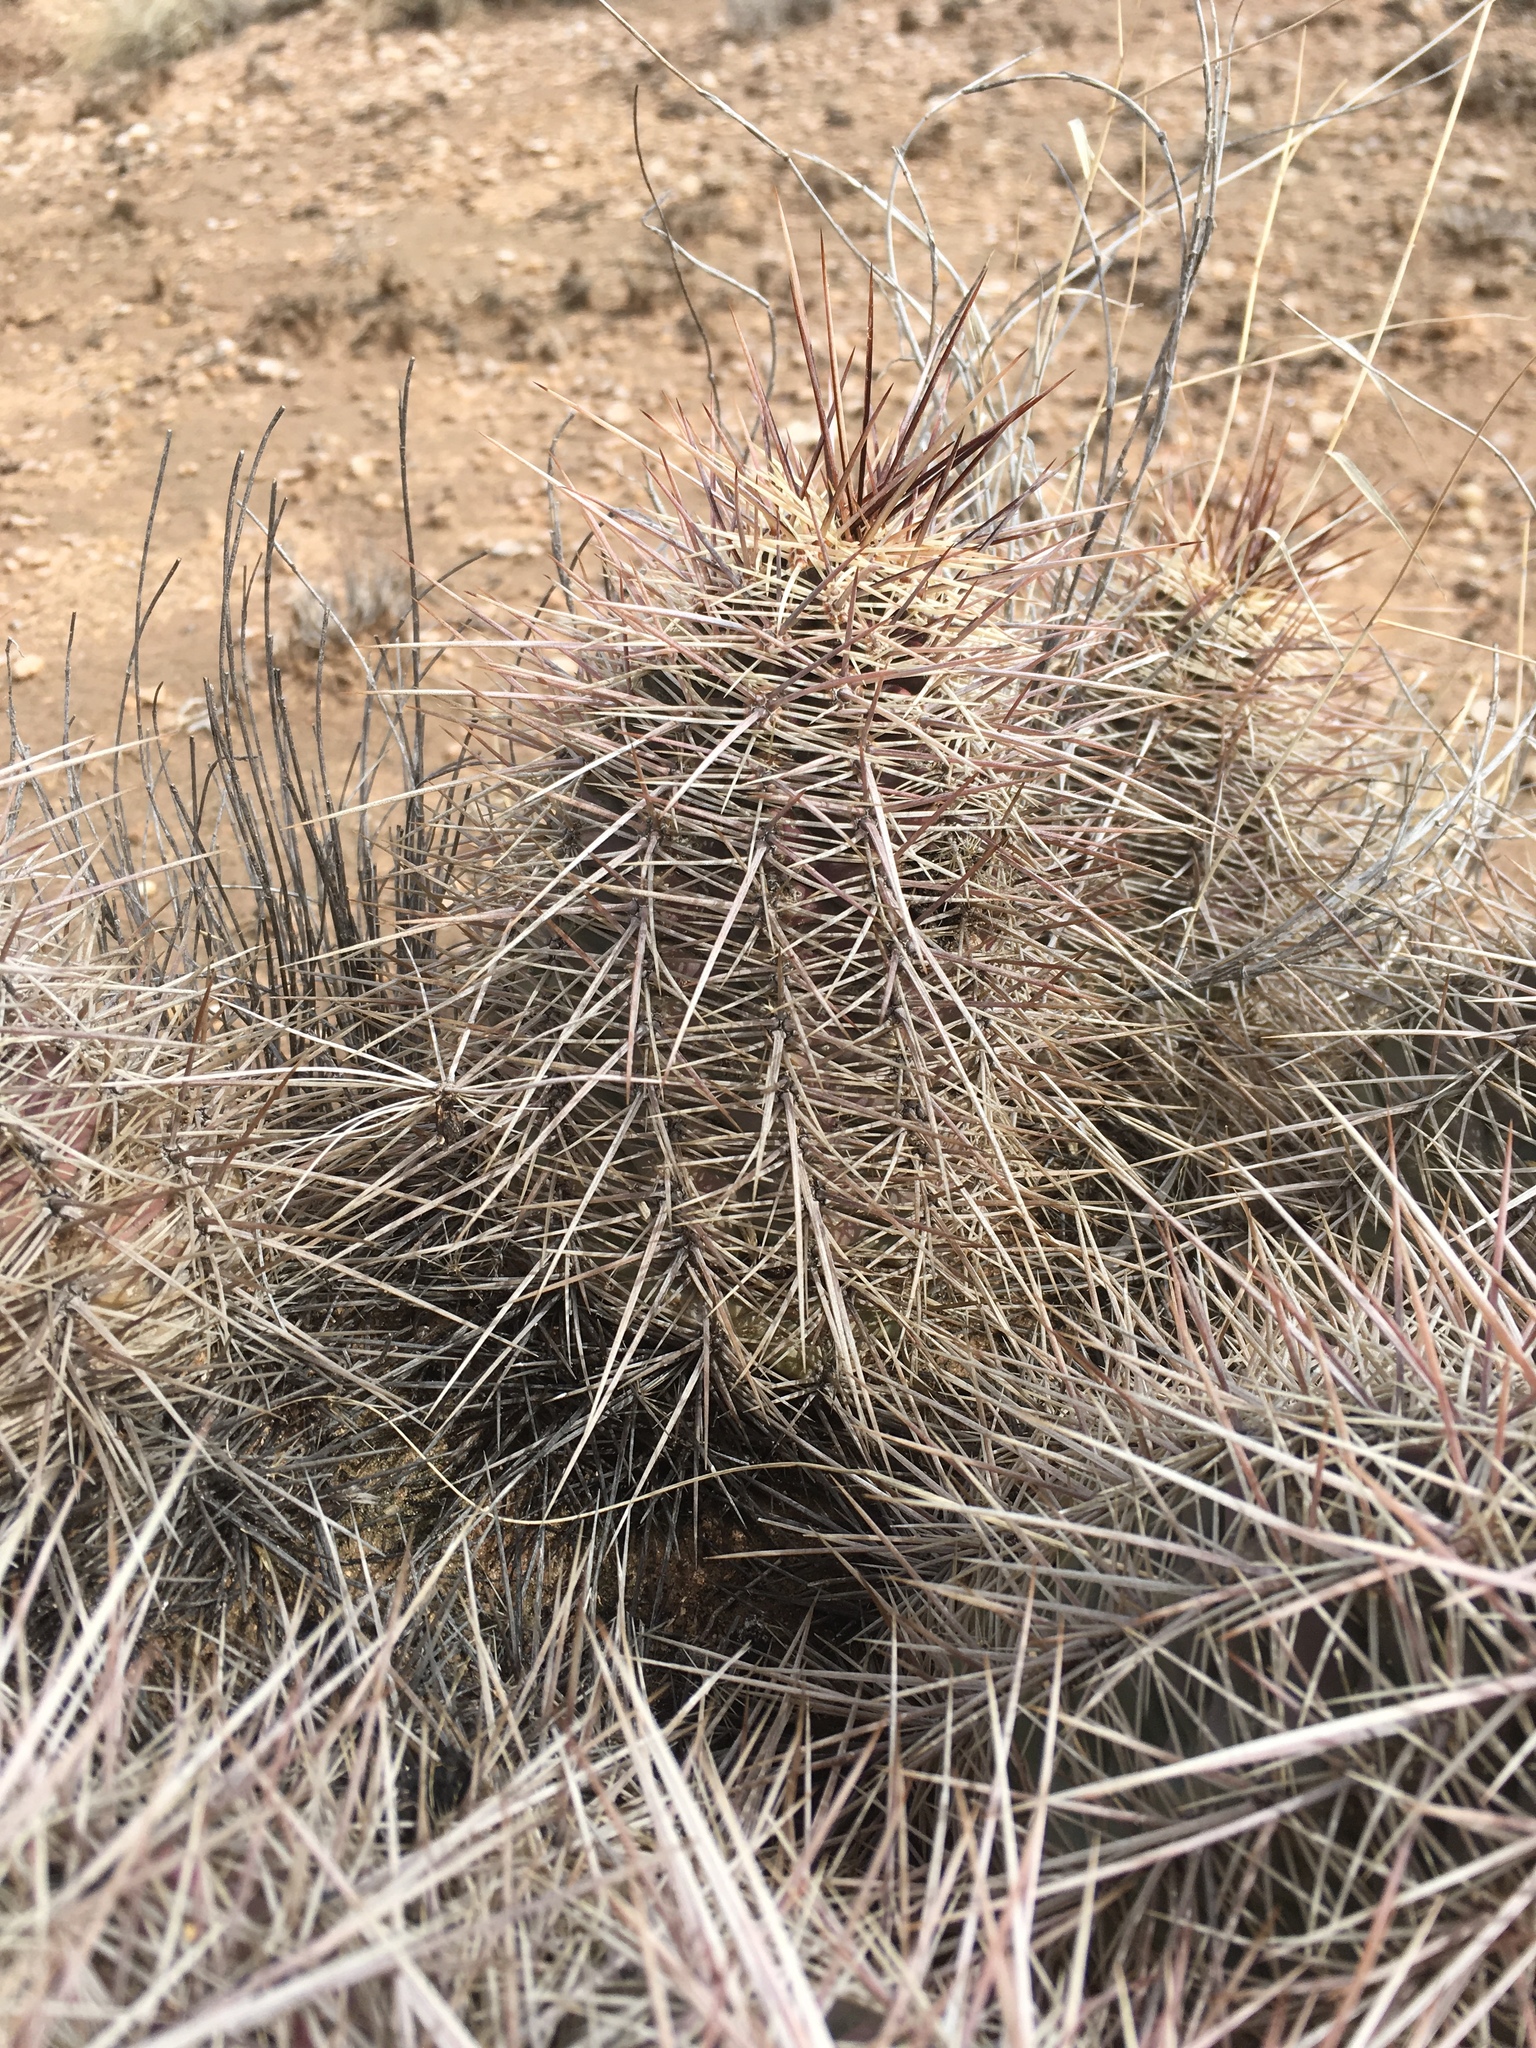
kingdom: Plantae
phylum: Tracheophyta
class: Magnoliopsida
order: Caryophyllales
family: Cactaceae
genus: Echinocereus
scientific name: Echinocereus coccineus
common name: Scarlet hedgehog cactus
